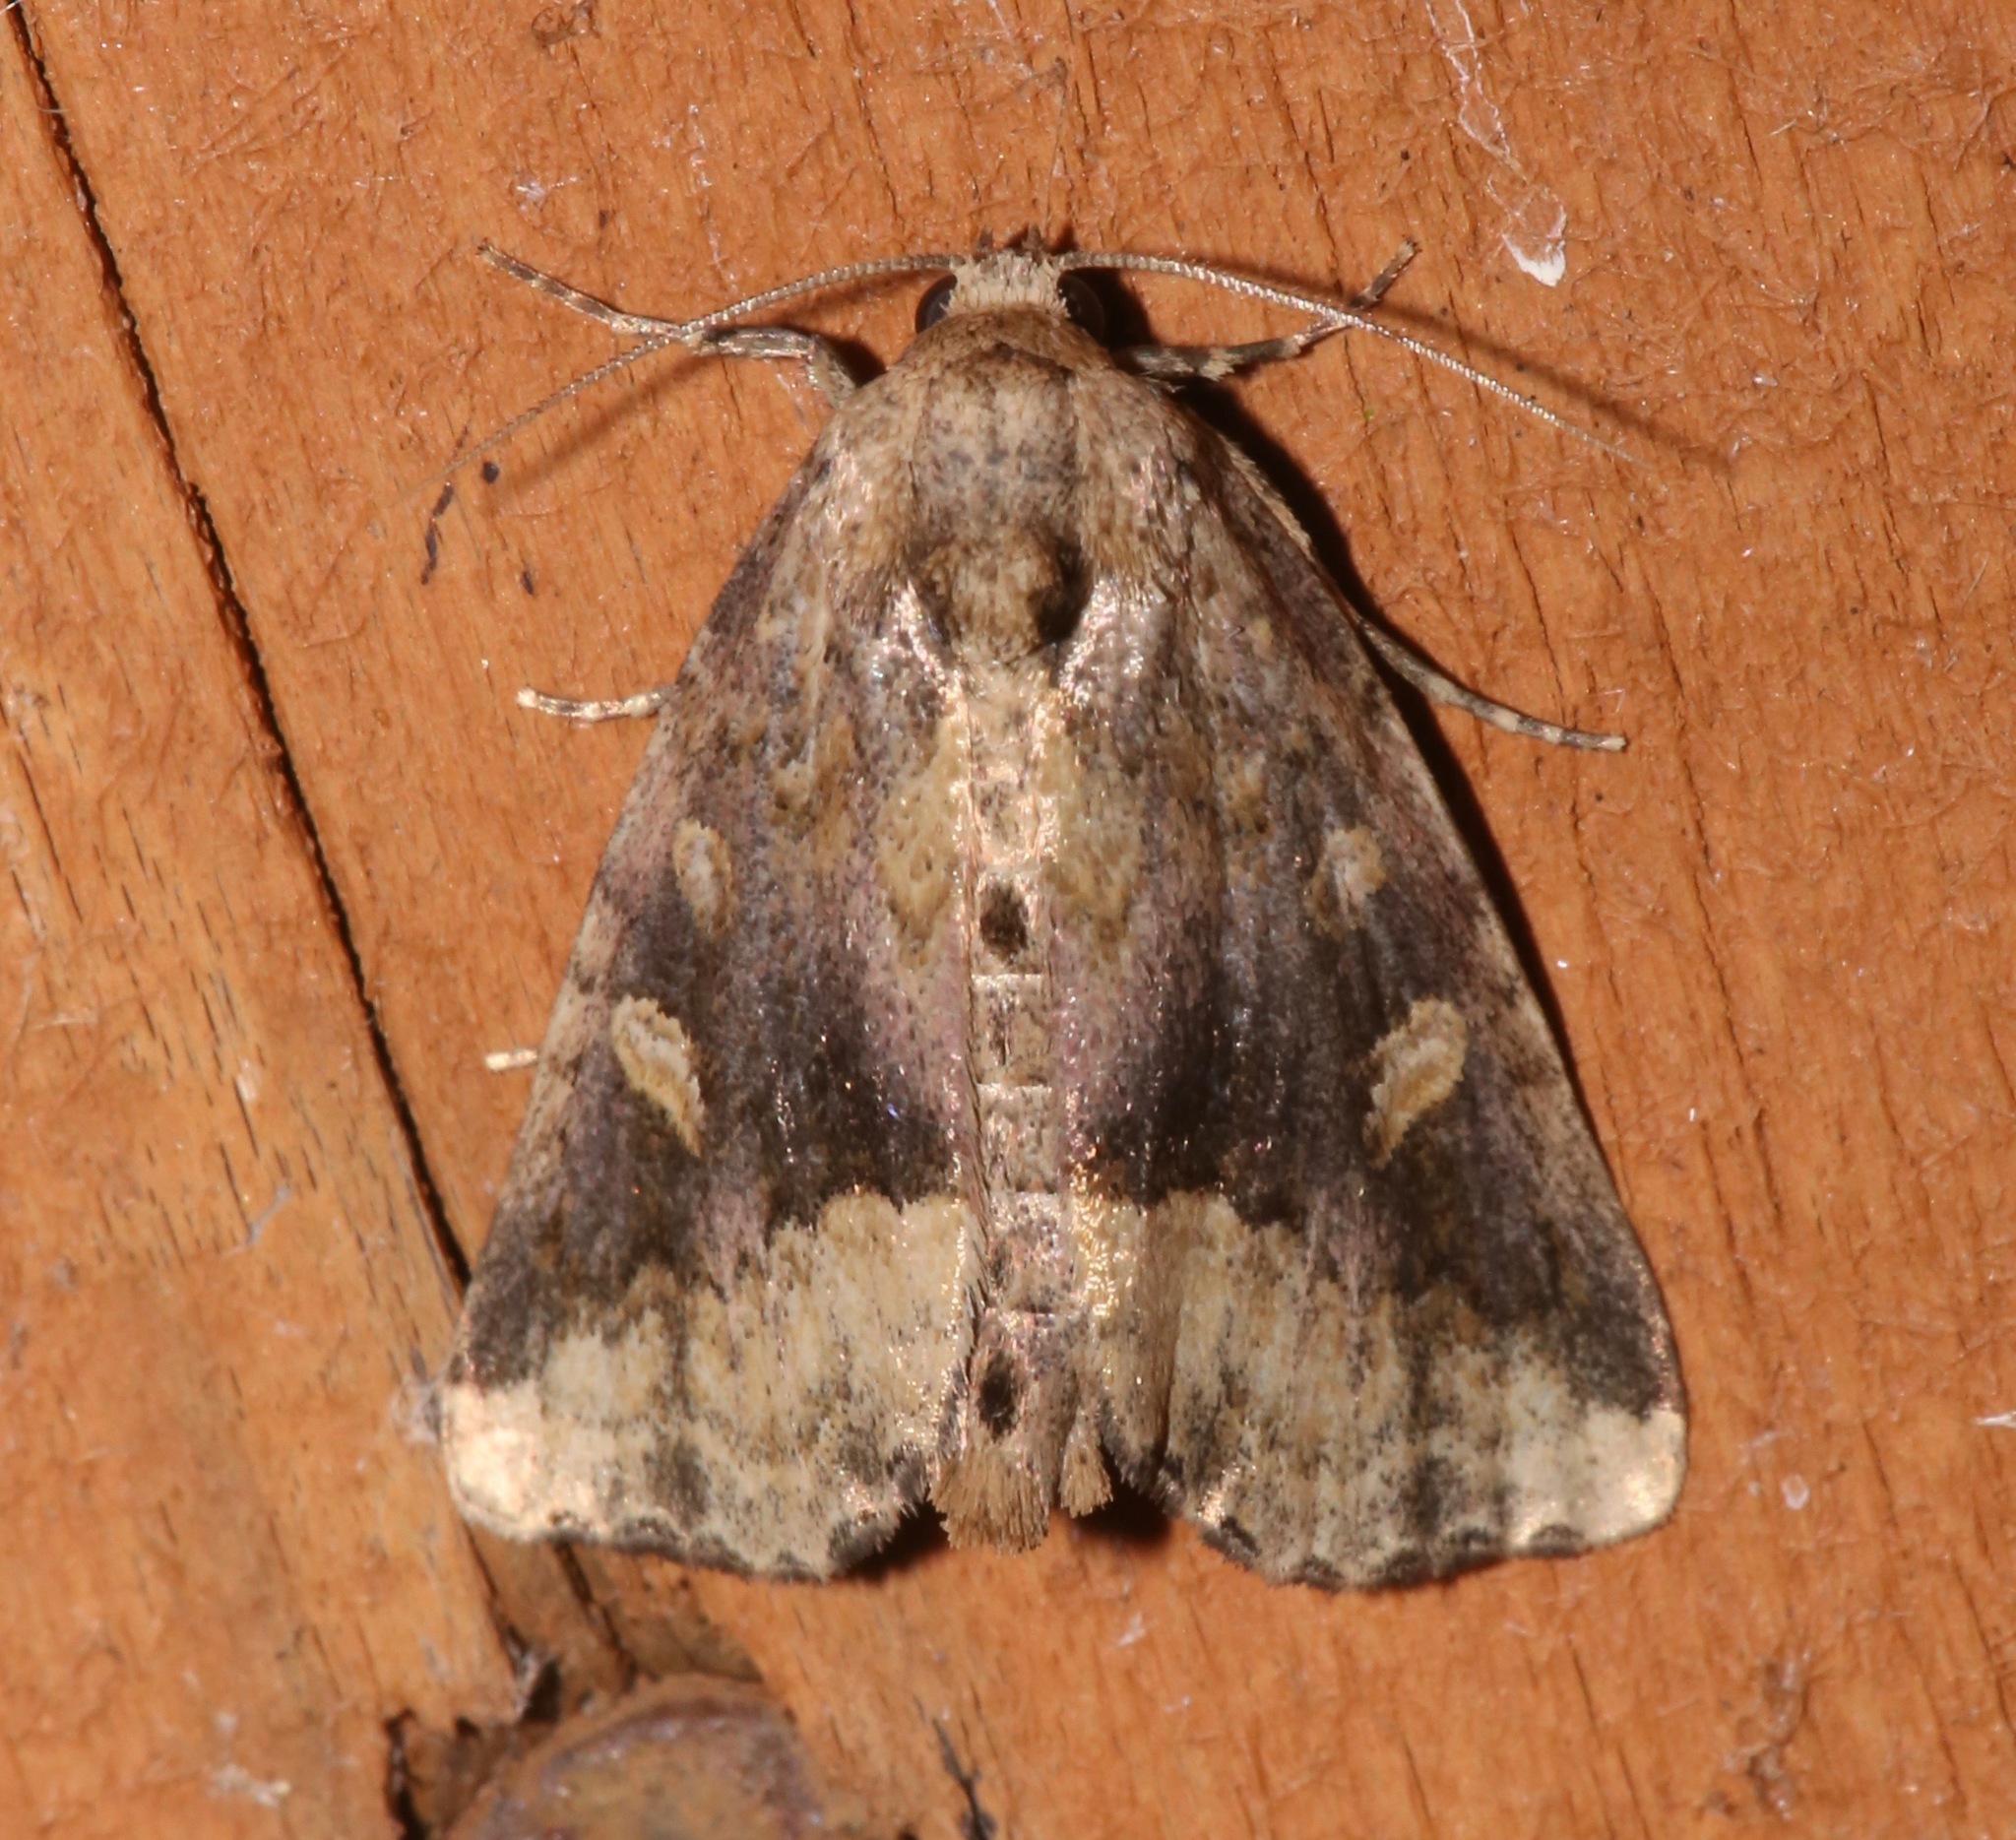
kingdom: Animalia
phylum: Arthropoda
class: Insecta
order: Lepidoptera
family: Noctuidae
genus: Homophoberia
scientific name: Homophoberia australis
